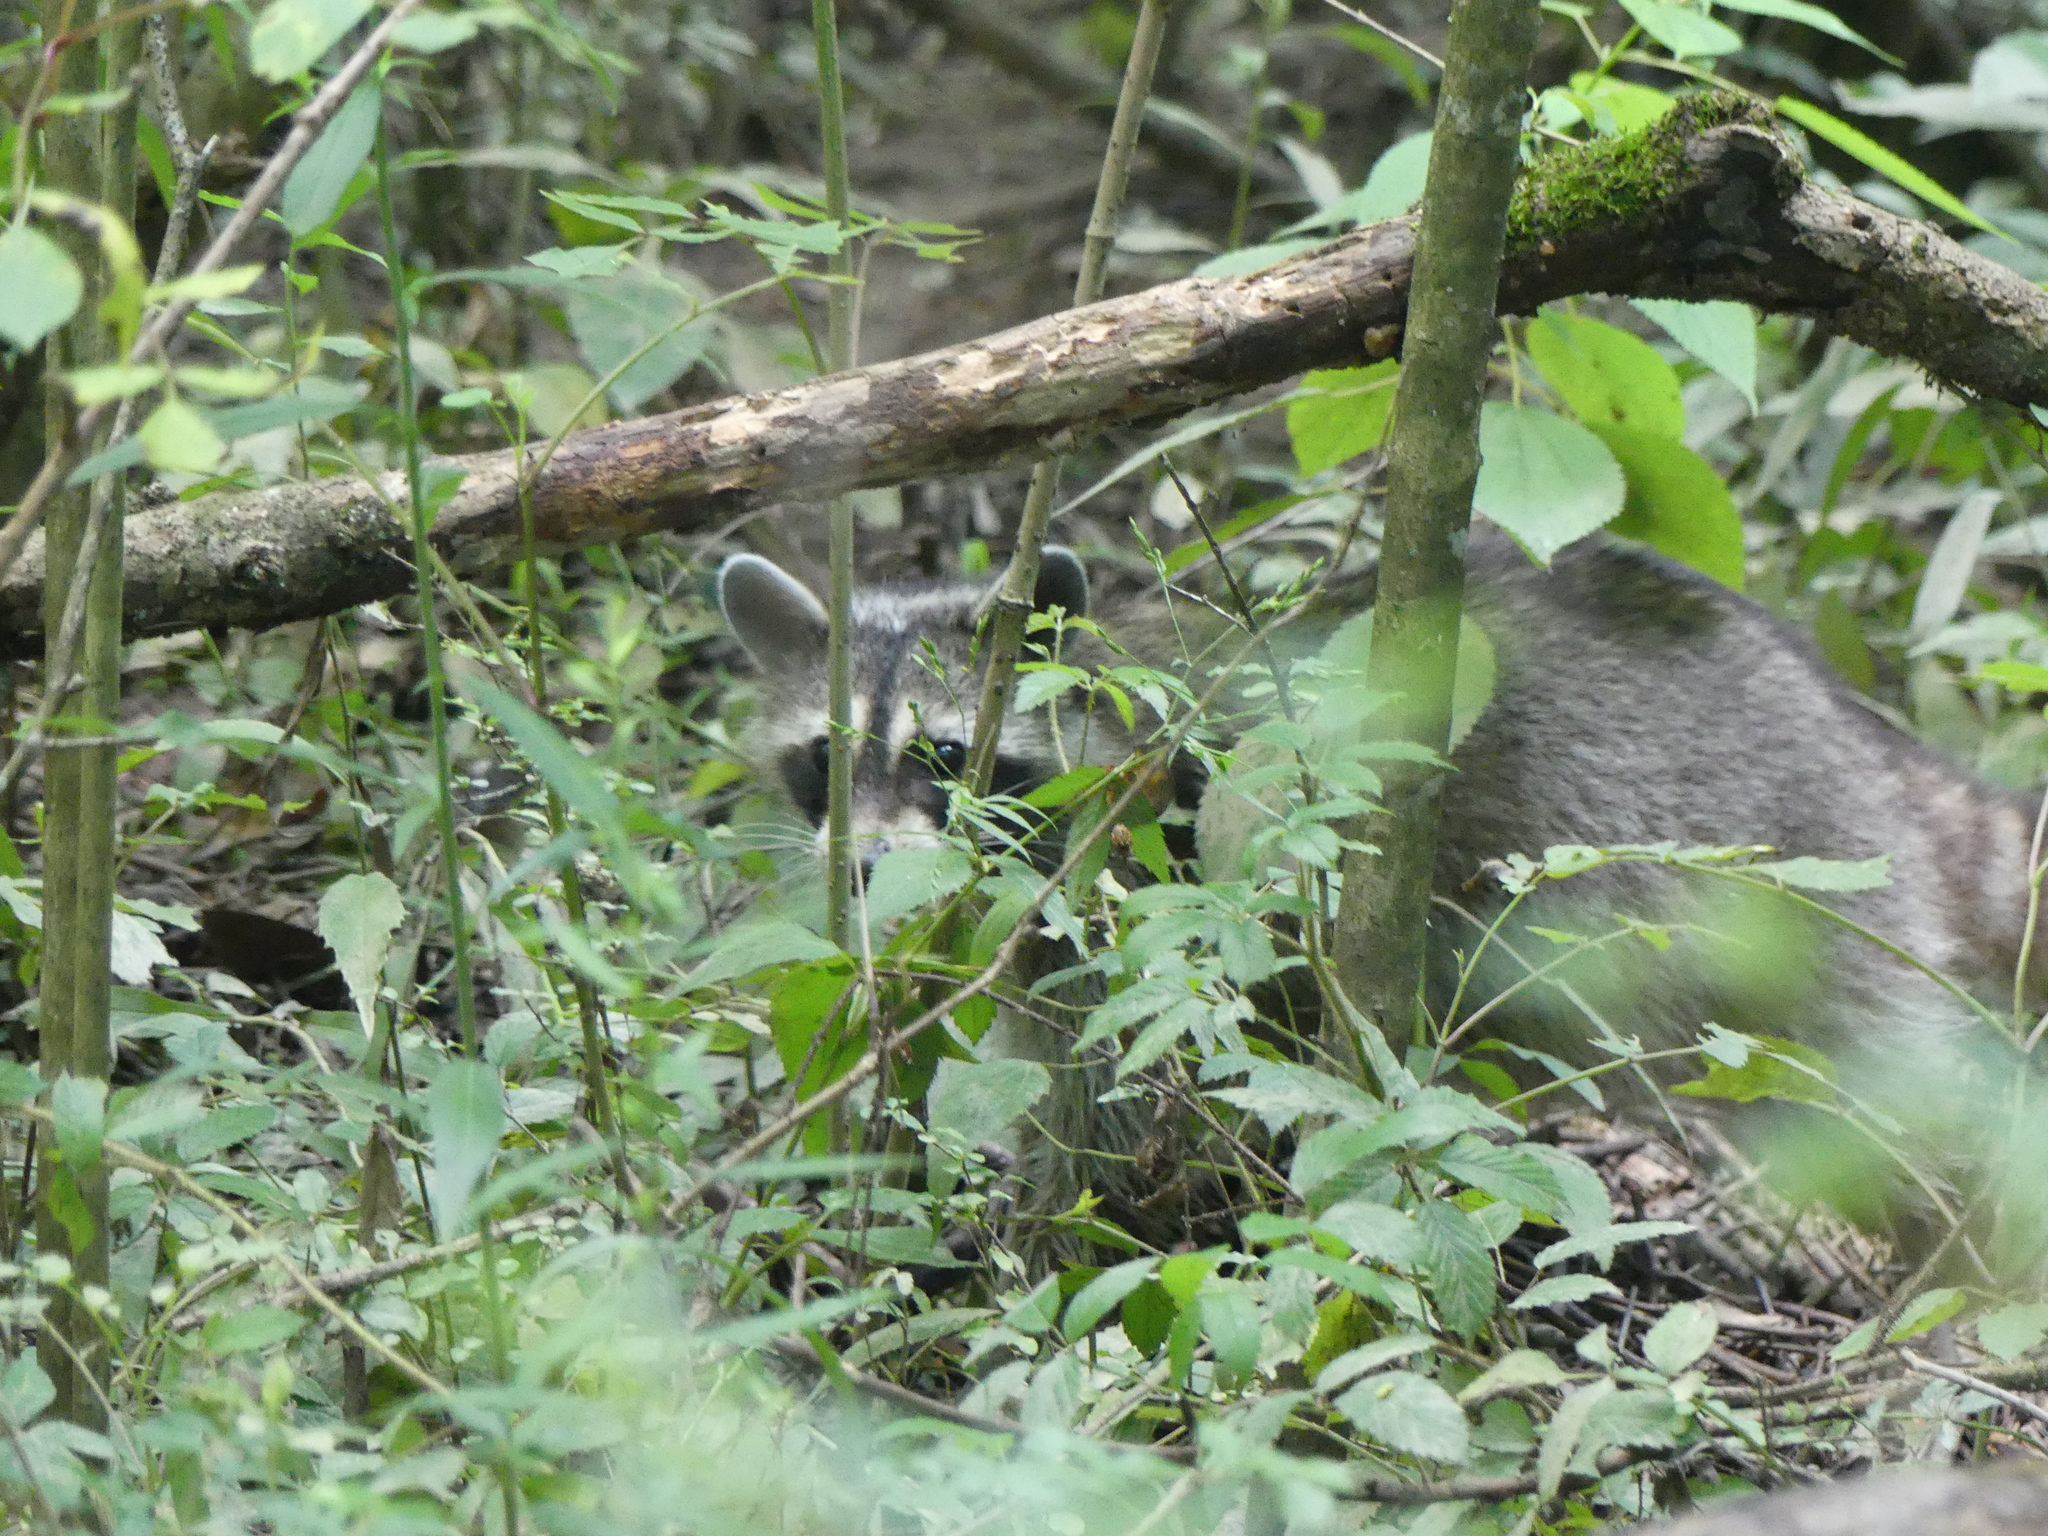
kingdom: Animalia
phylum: Chordata
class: Mammalia
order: Carnivora
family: Procyonidae
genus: Procyon
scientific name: Procyon lotor
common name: Raccoon
